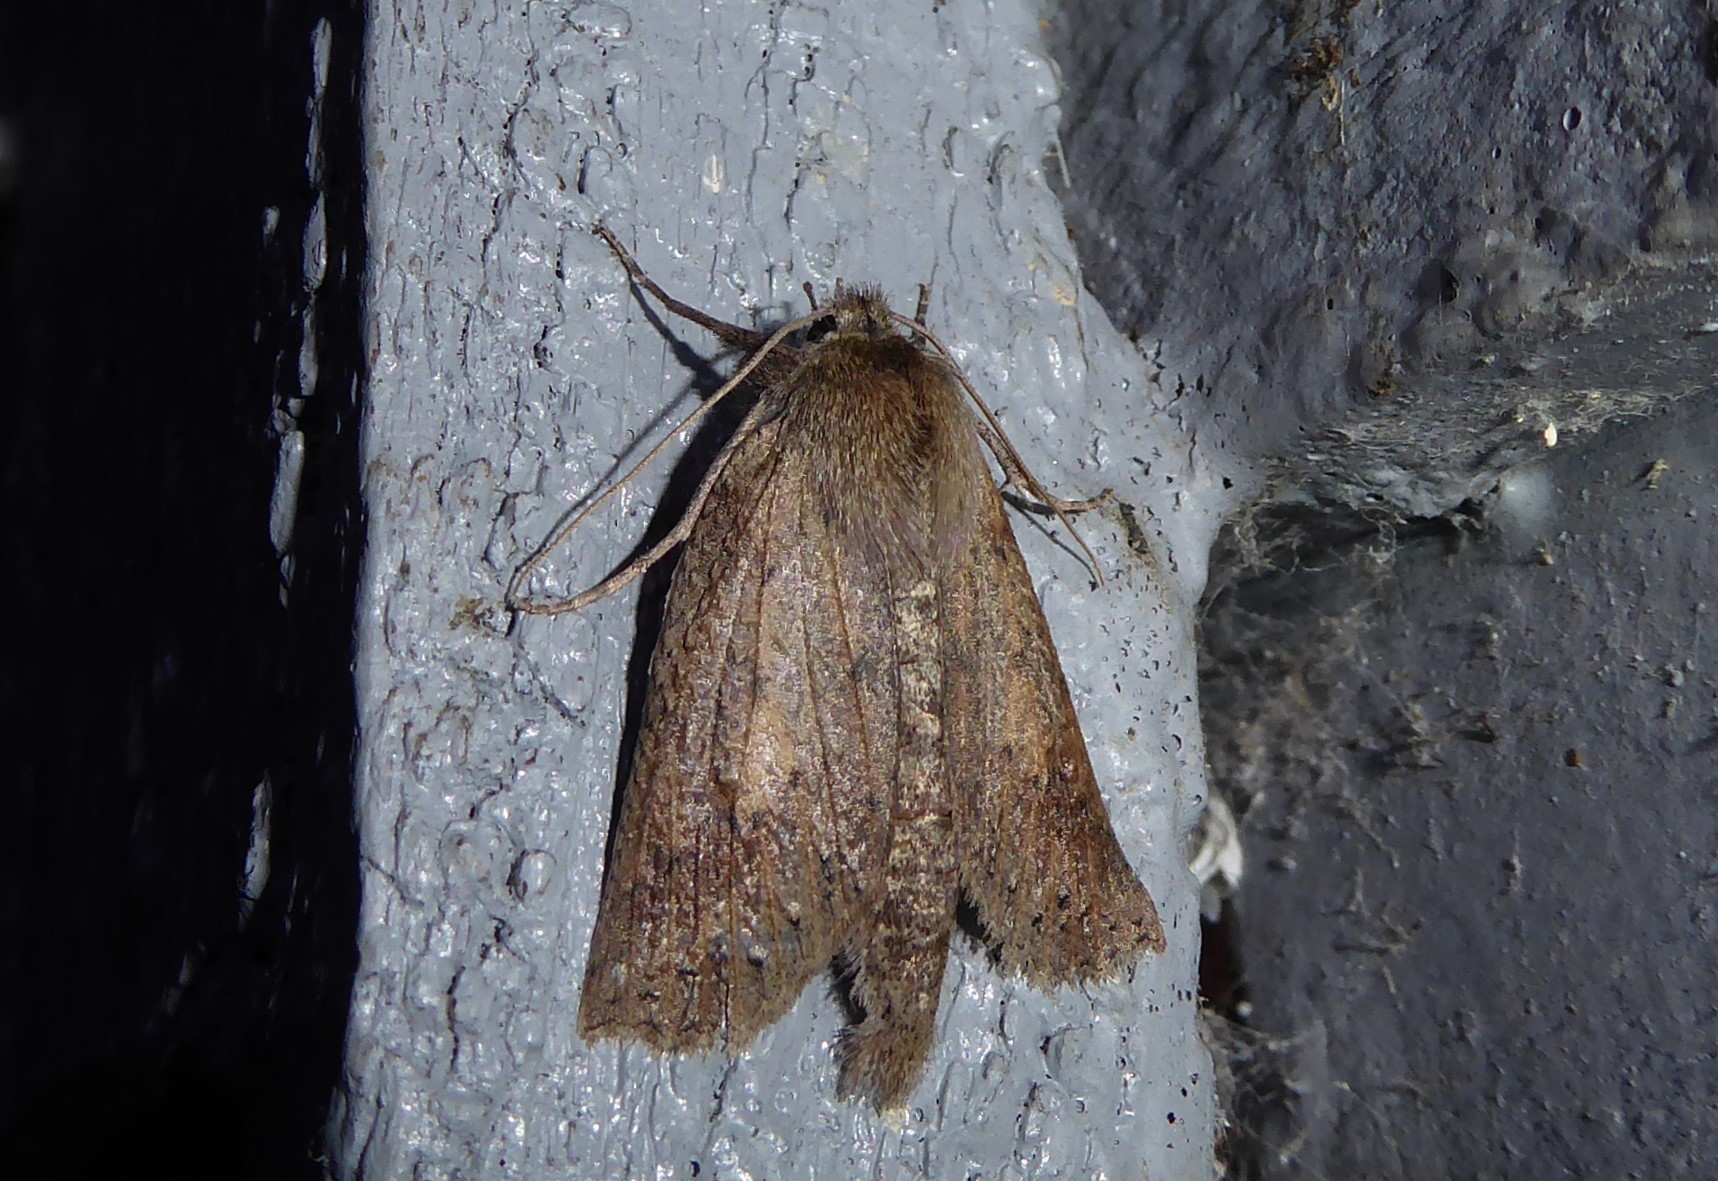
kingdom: Animalia
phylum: Arthropoda
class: Insecta
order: Lepidoptera
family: Geometridae
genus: Declana
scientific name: Declana leptomera
